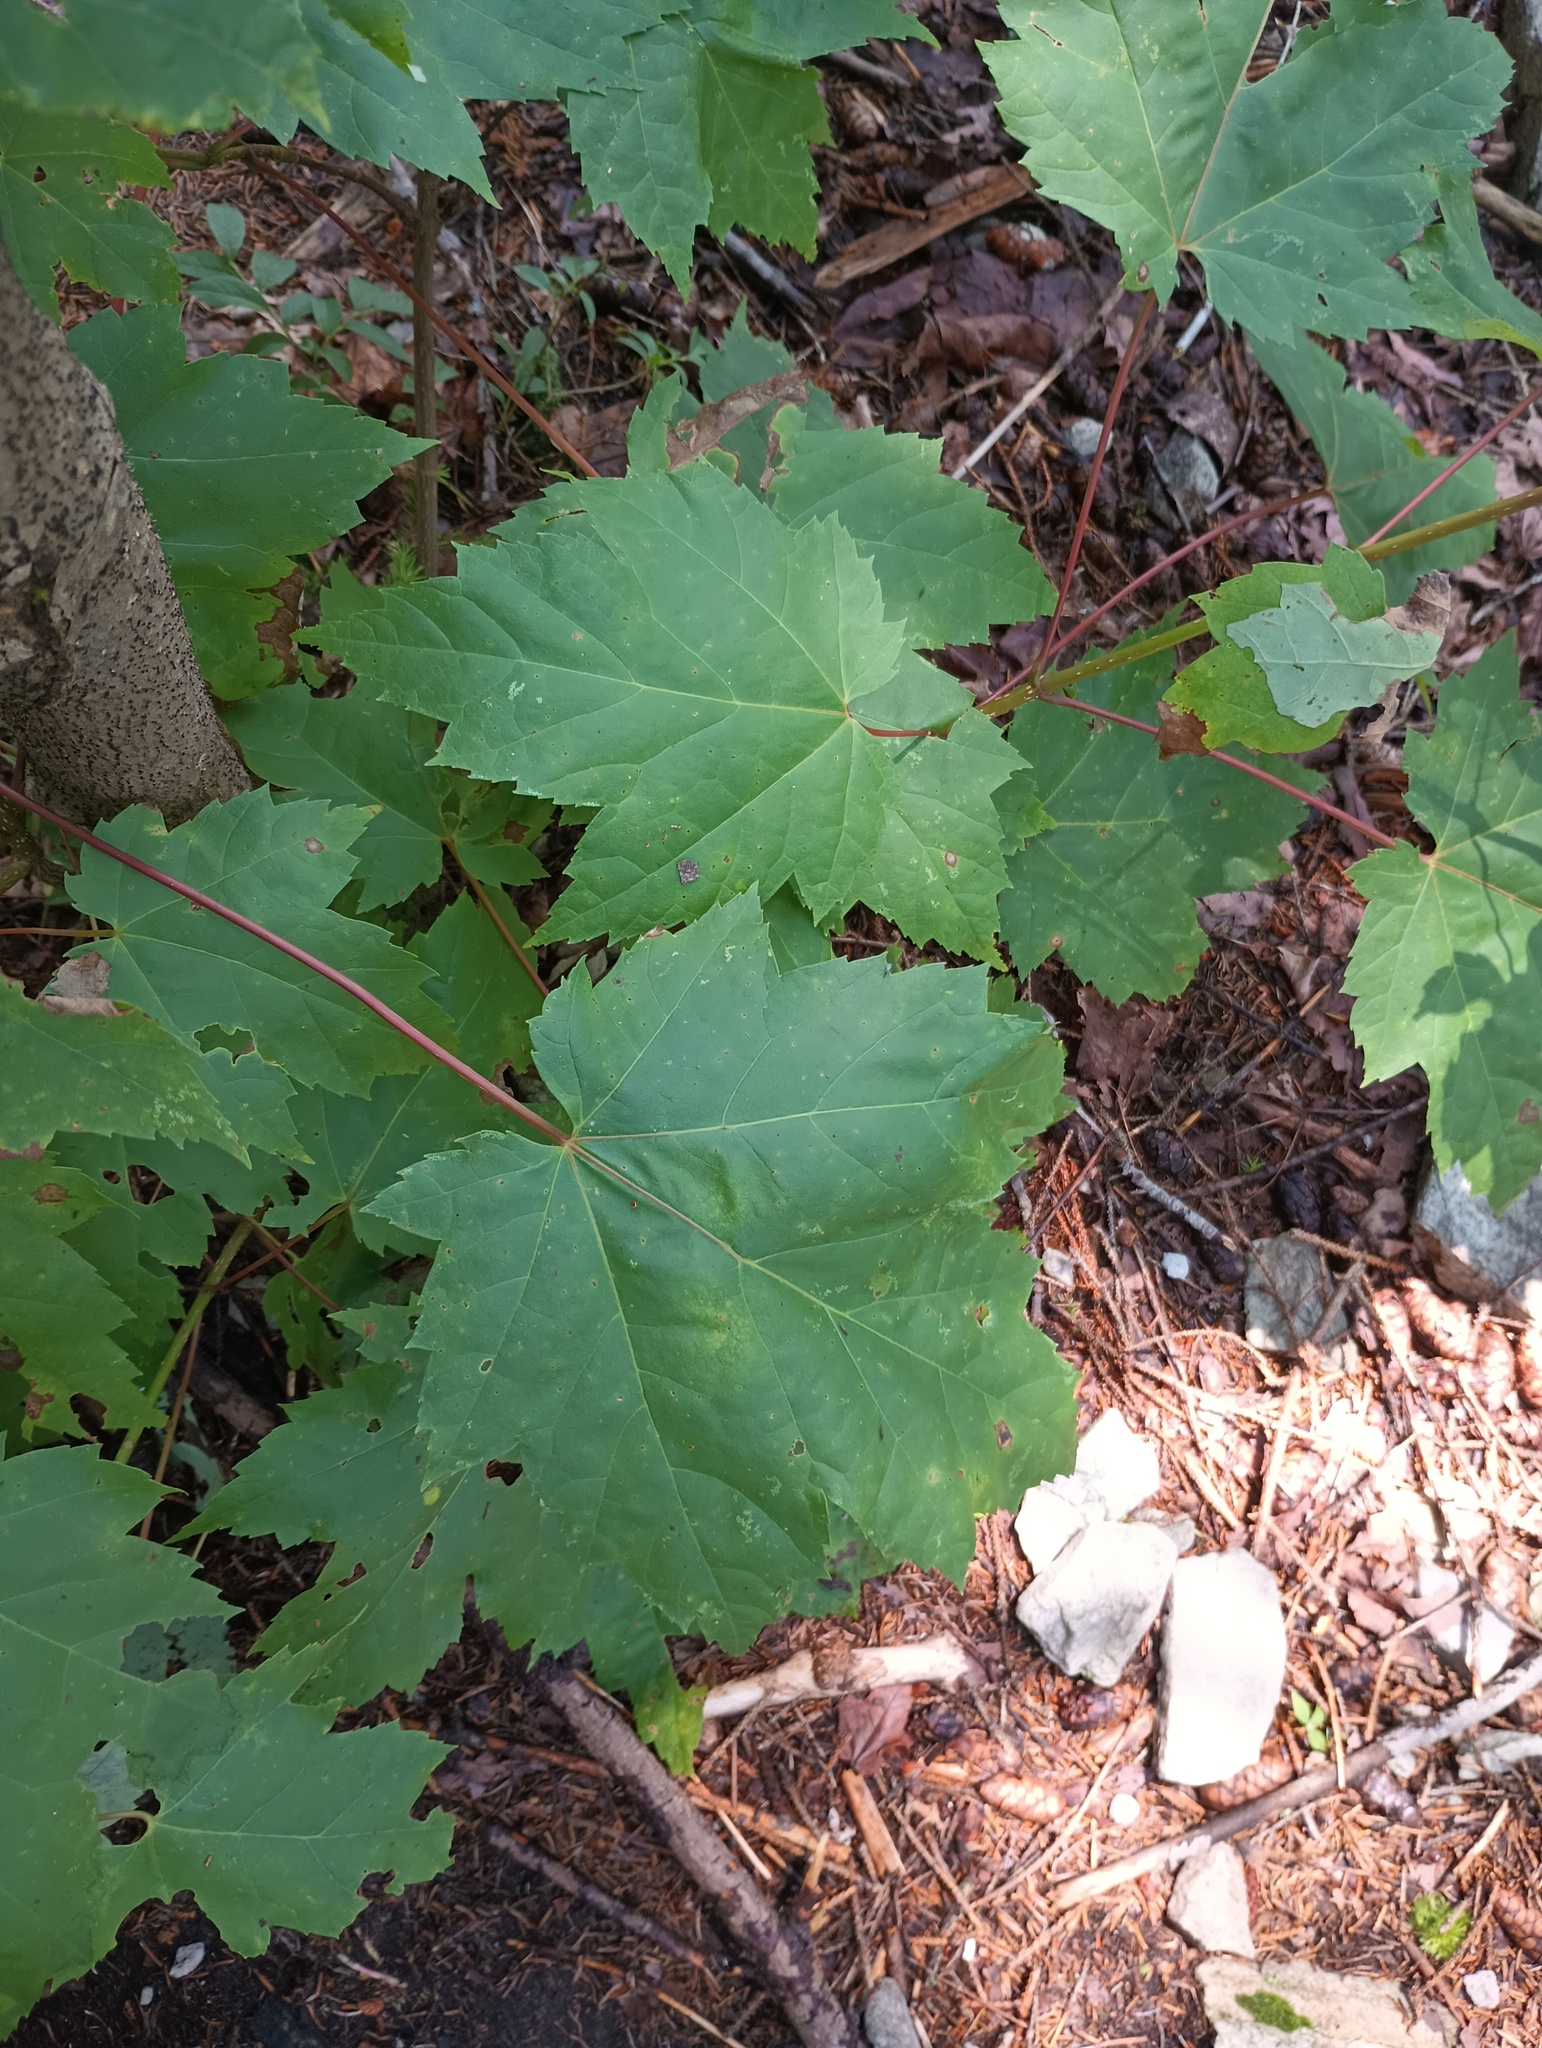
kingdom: Plantae
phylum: Tracheophyta
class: Magnoliopsida
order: Sapindales
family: Sapindaceae
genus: Acer
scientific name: Acer rubrum
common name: Red maple
